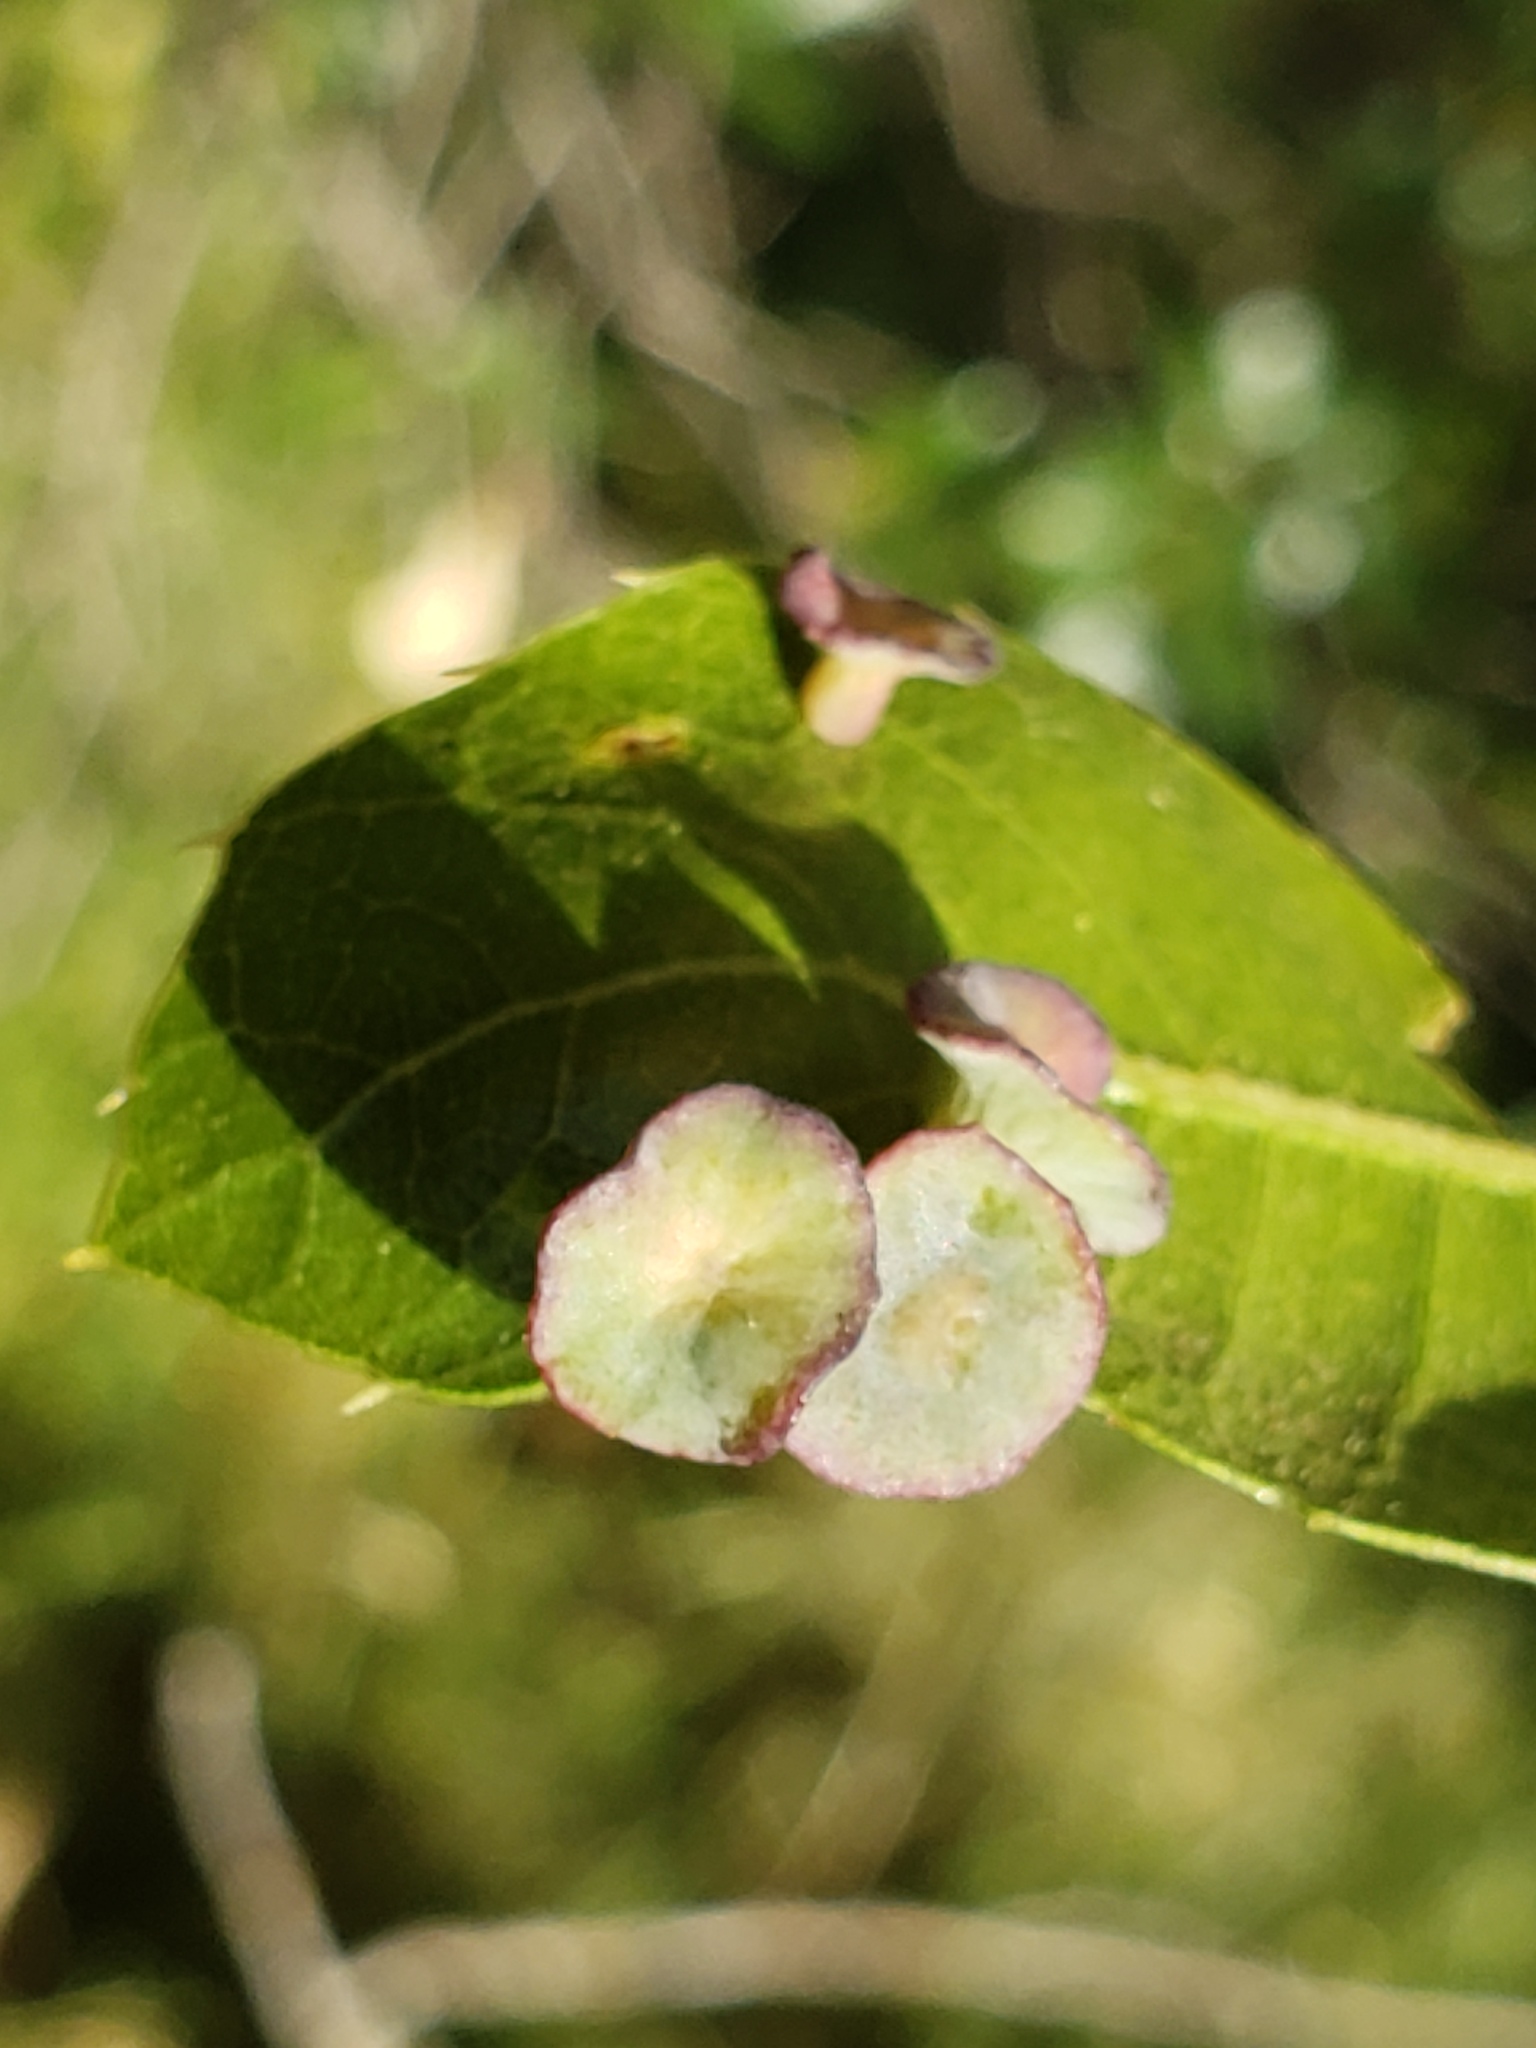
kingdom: Animalia
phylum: Arthropoda
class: Insecta
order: Hymenoptera
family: Cynipidae
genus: Amphibolips
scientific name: Amphibolips quercuspomiformis
